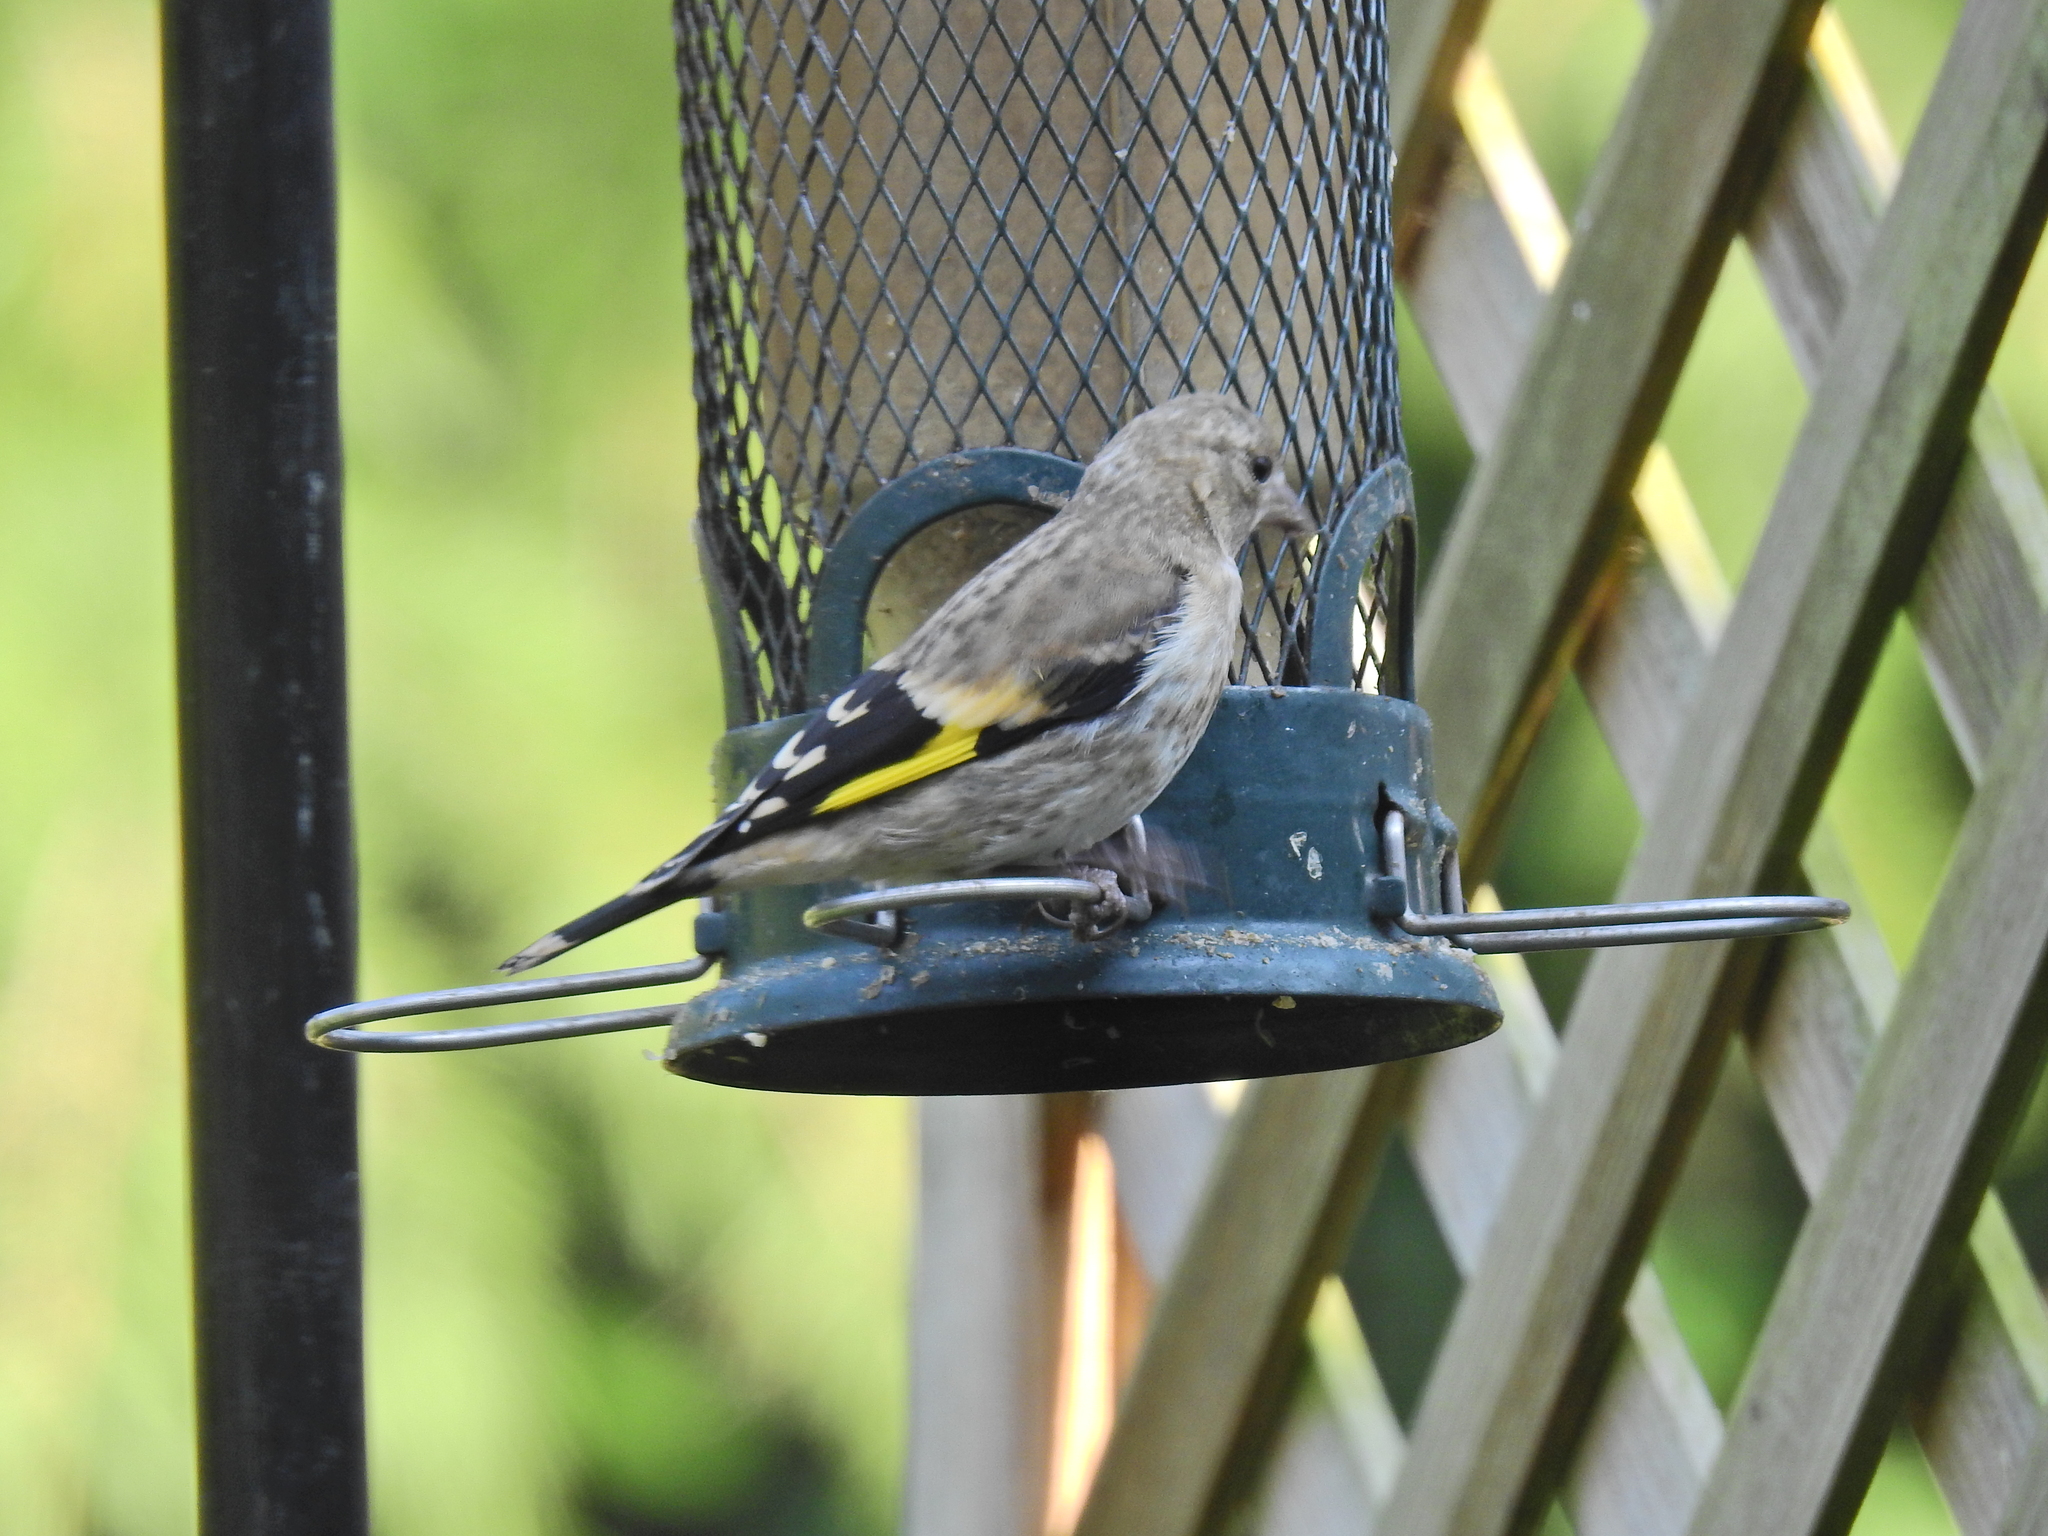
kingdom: Animalia
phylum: Chordata
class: Aves
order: Passeriformes
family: Fringillidae
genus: Carduelis
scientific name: Carduelis carduelis
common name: European goldfinch
